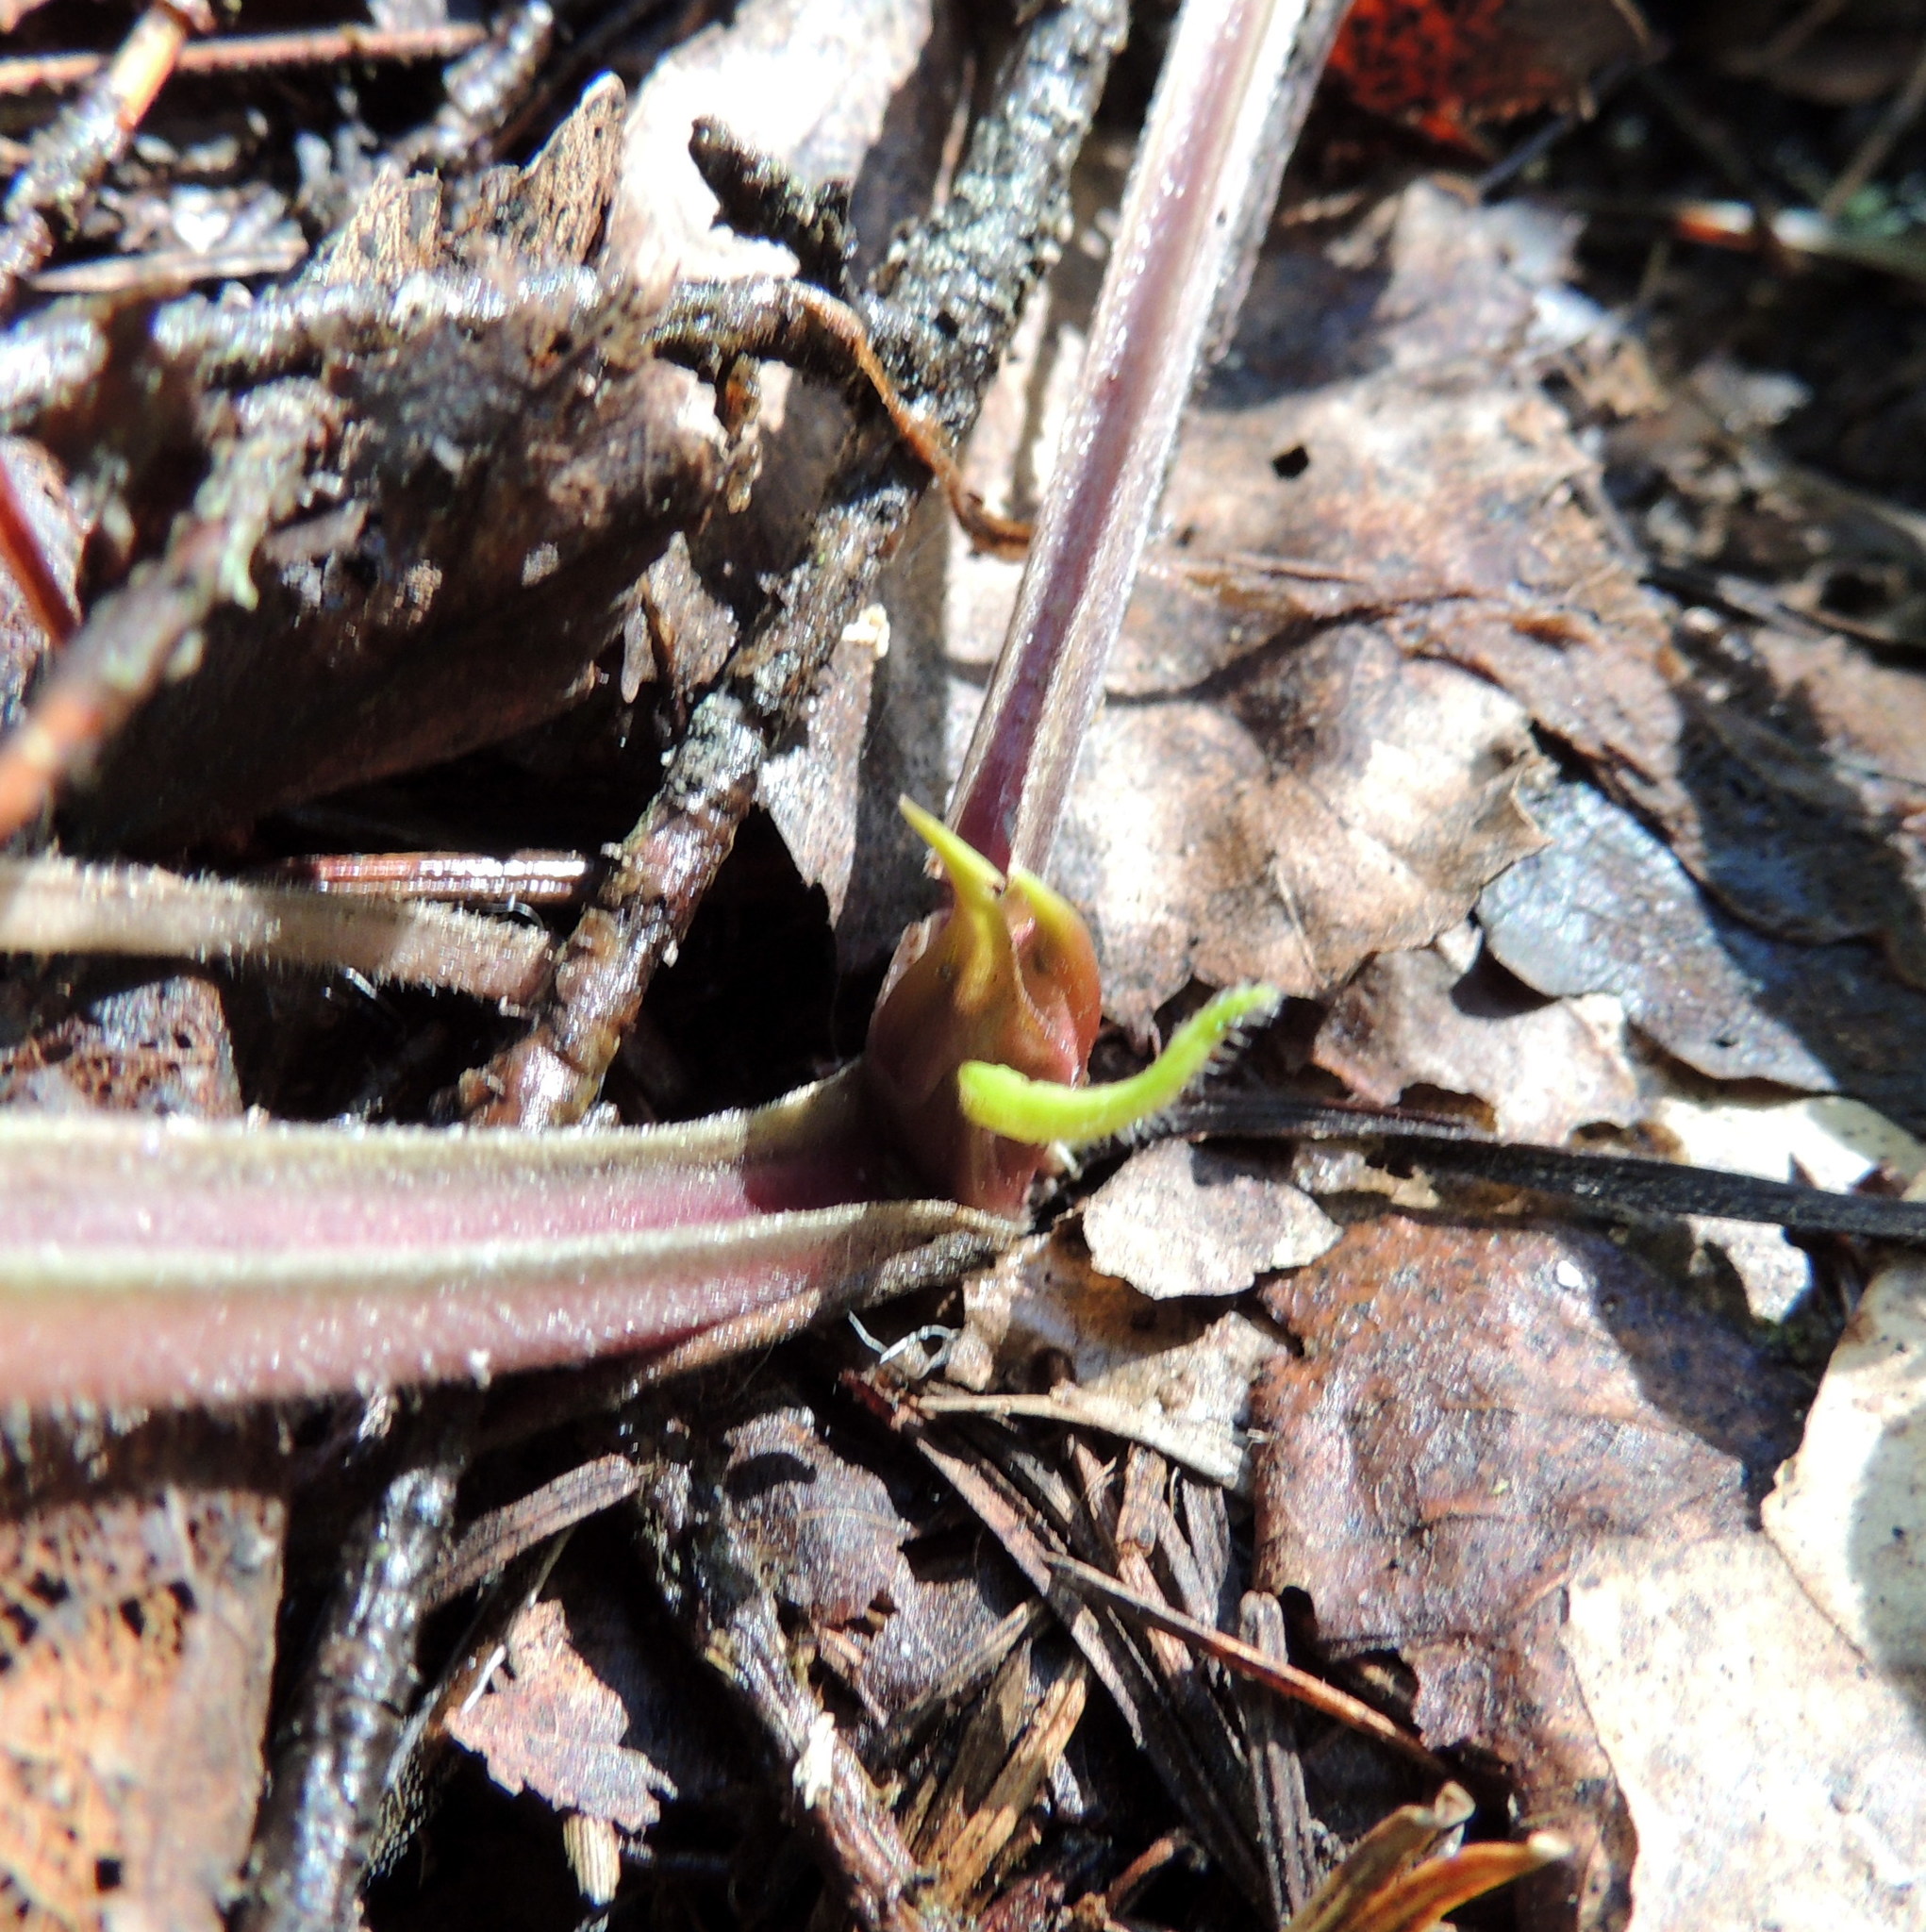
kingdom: Plantae
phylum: Tracheophyta
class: Magnoliopsida
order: Boraginales
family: Boraginaceae
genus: Pulmonaria
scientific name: Pulmonaria mollis
